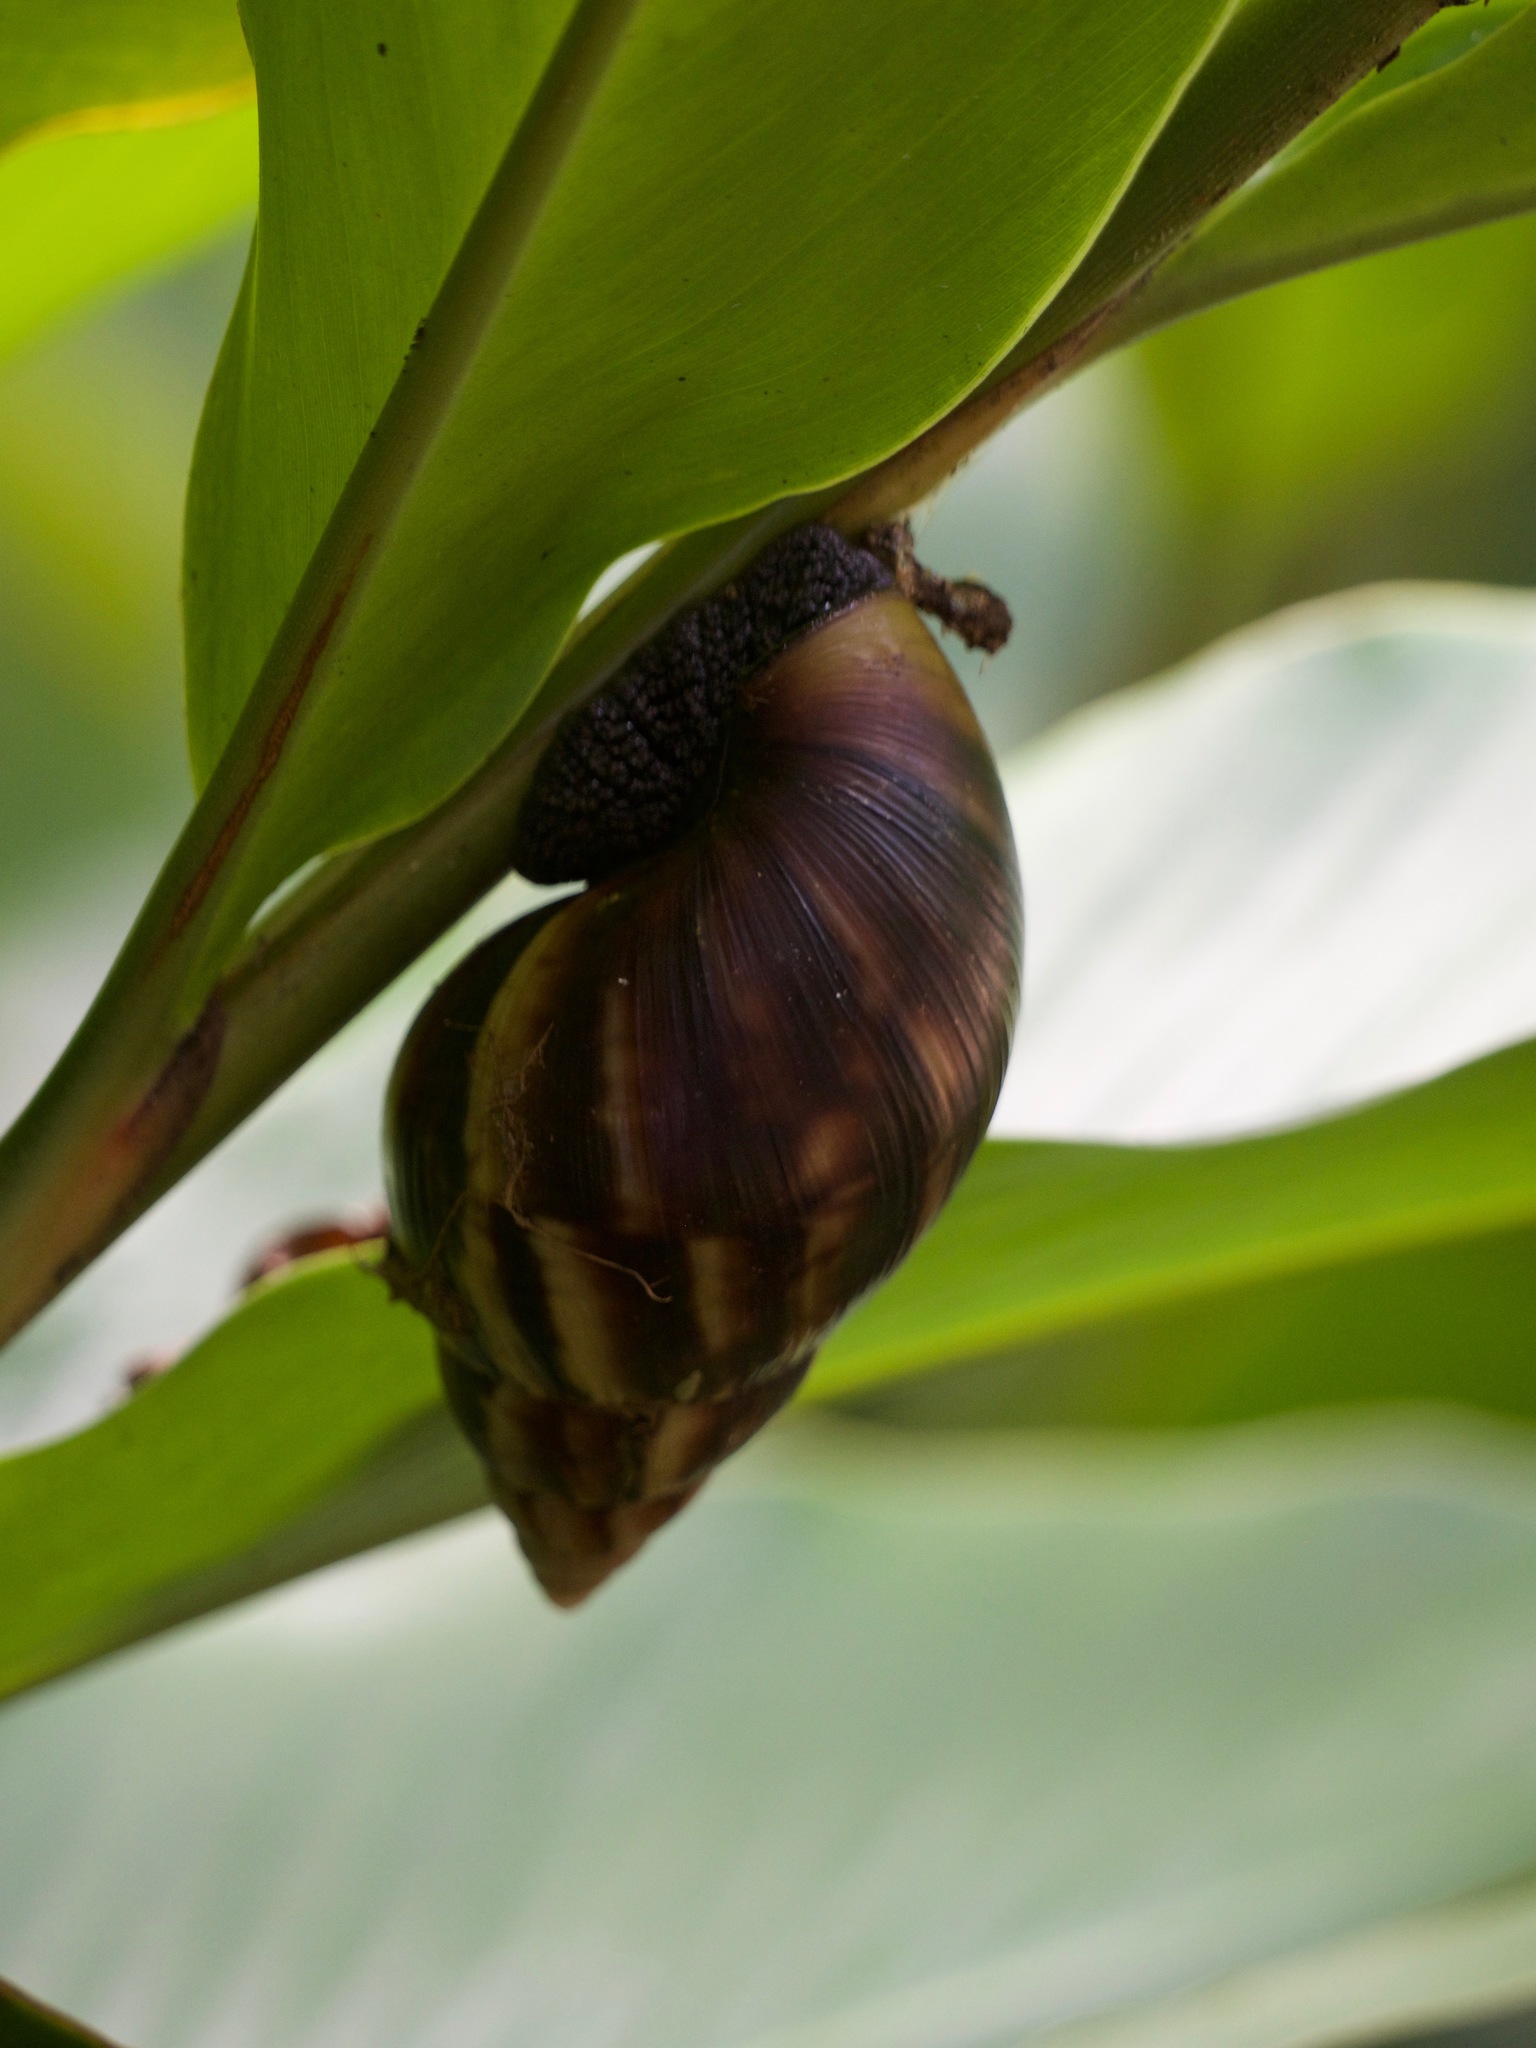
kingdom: Animalia
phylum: Mollusca
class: Gastropoda
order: Stylommatophora
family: Achatinidae
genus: Lissachatina
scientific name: Lissachatina fulica
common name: Giant african snail
